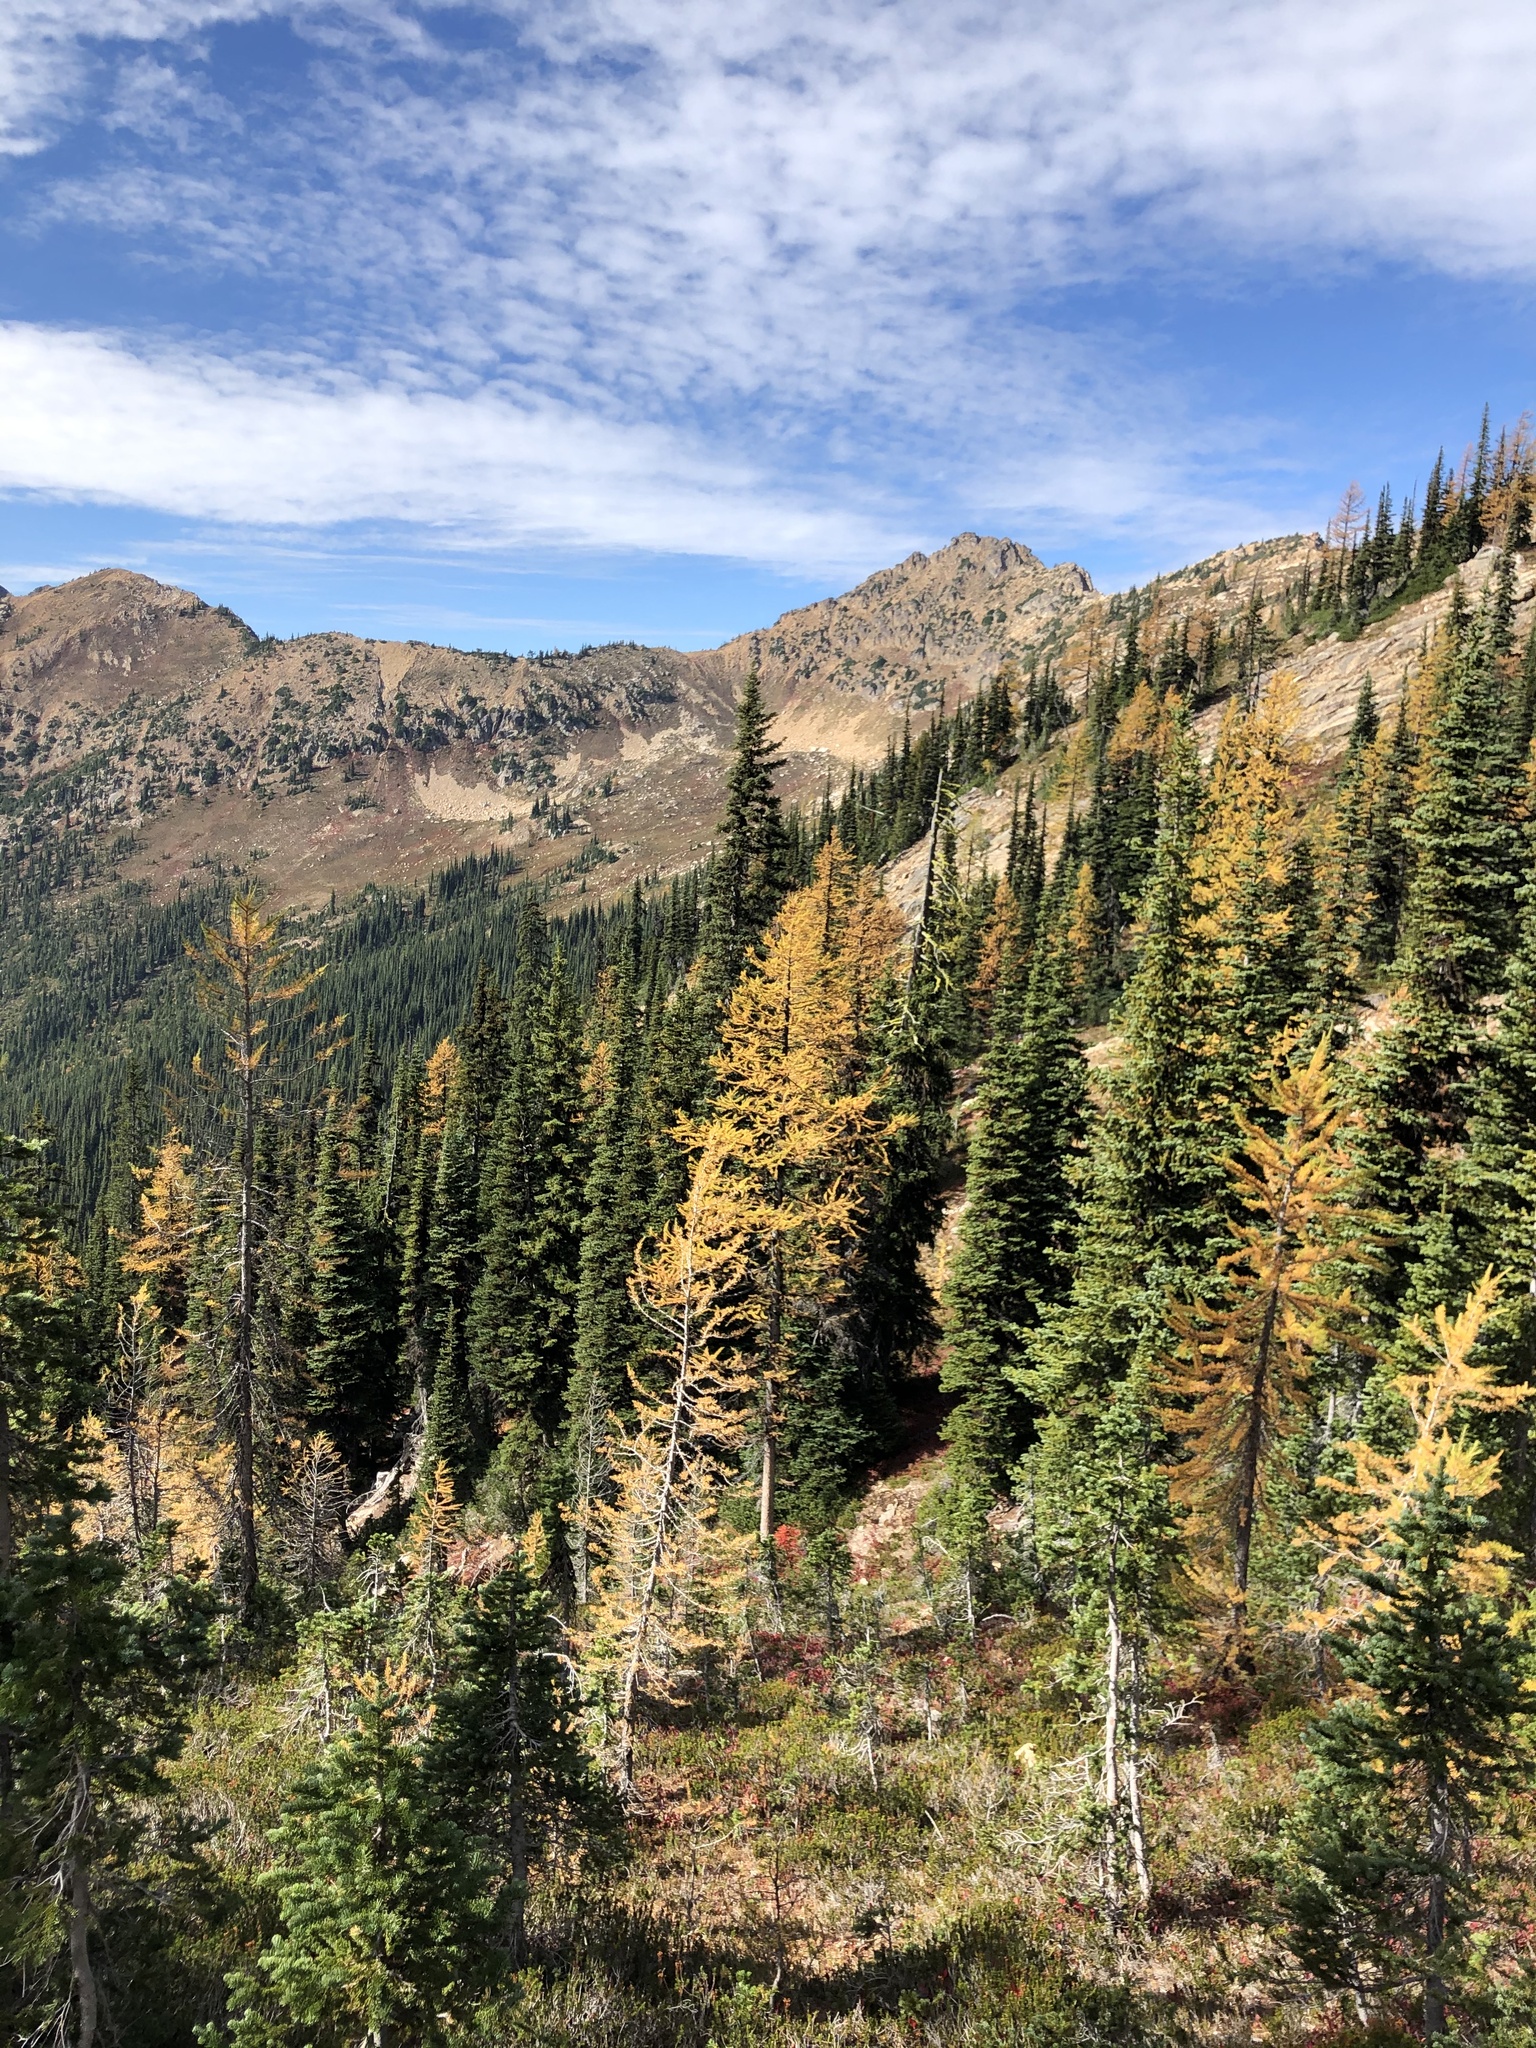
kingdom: Plantae
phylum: Tracheophyta
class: Pinopsida
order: Pinales
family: Pinaceae
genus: Larix
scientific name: Larix lyallii
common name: Alpine larch
